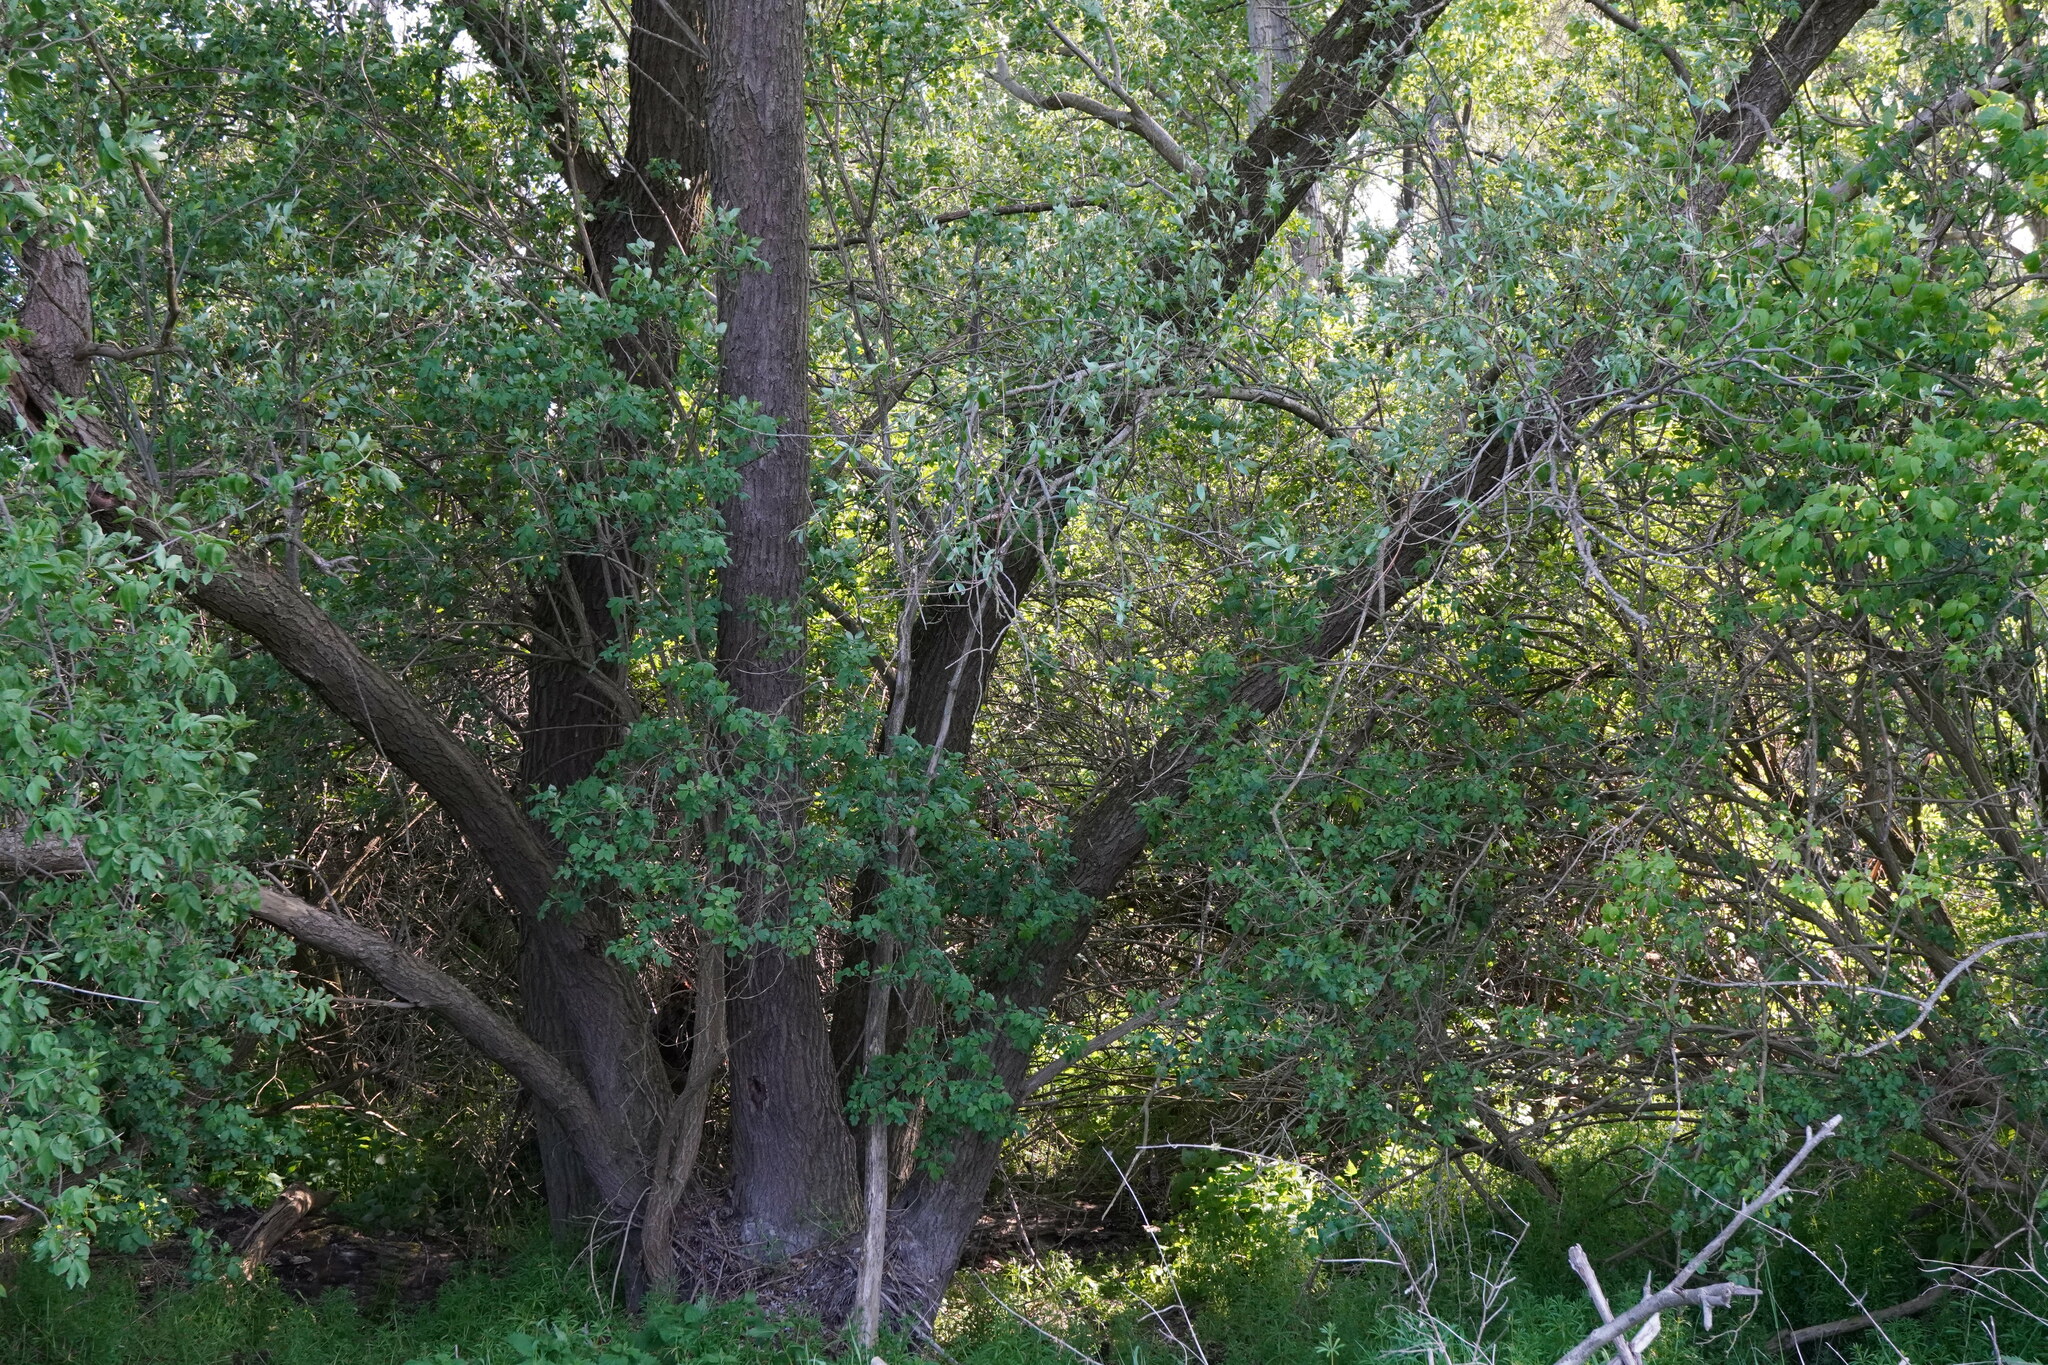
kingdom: Plantae
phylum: Tracheophyta
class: Magnoliopsida
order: Malpighiales
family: Salicaceae
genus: Salix
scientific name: Salix alba
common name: White willow
